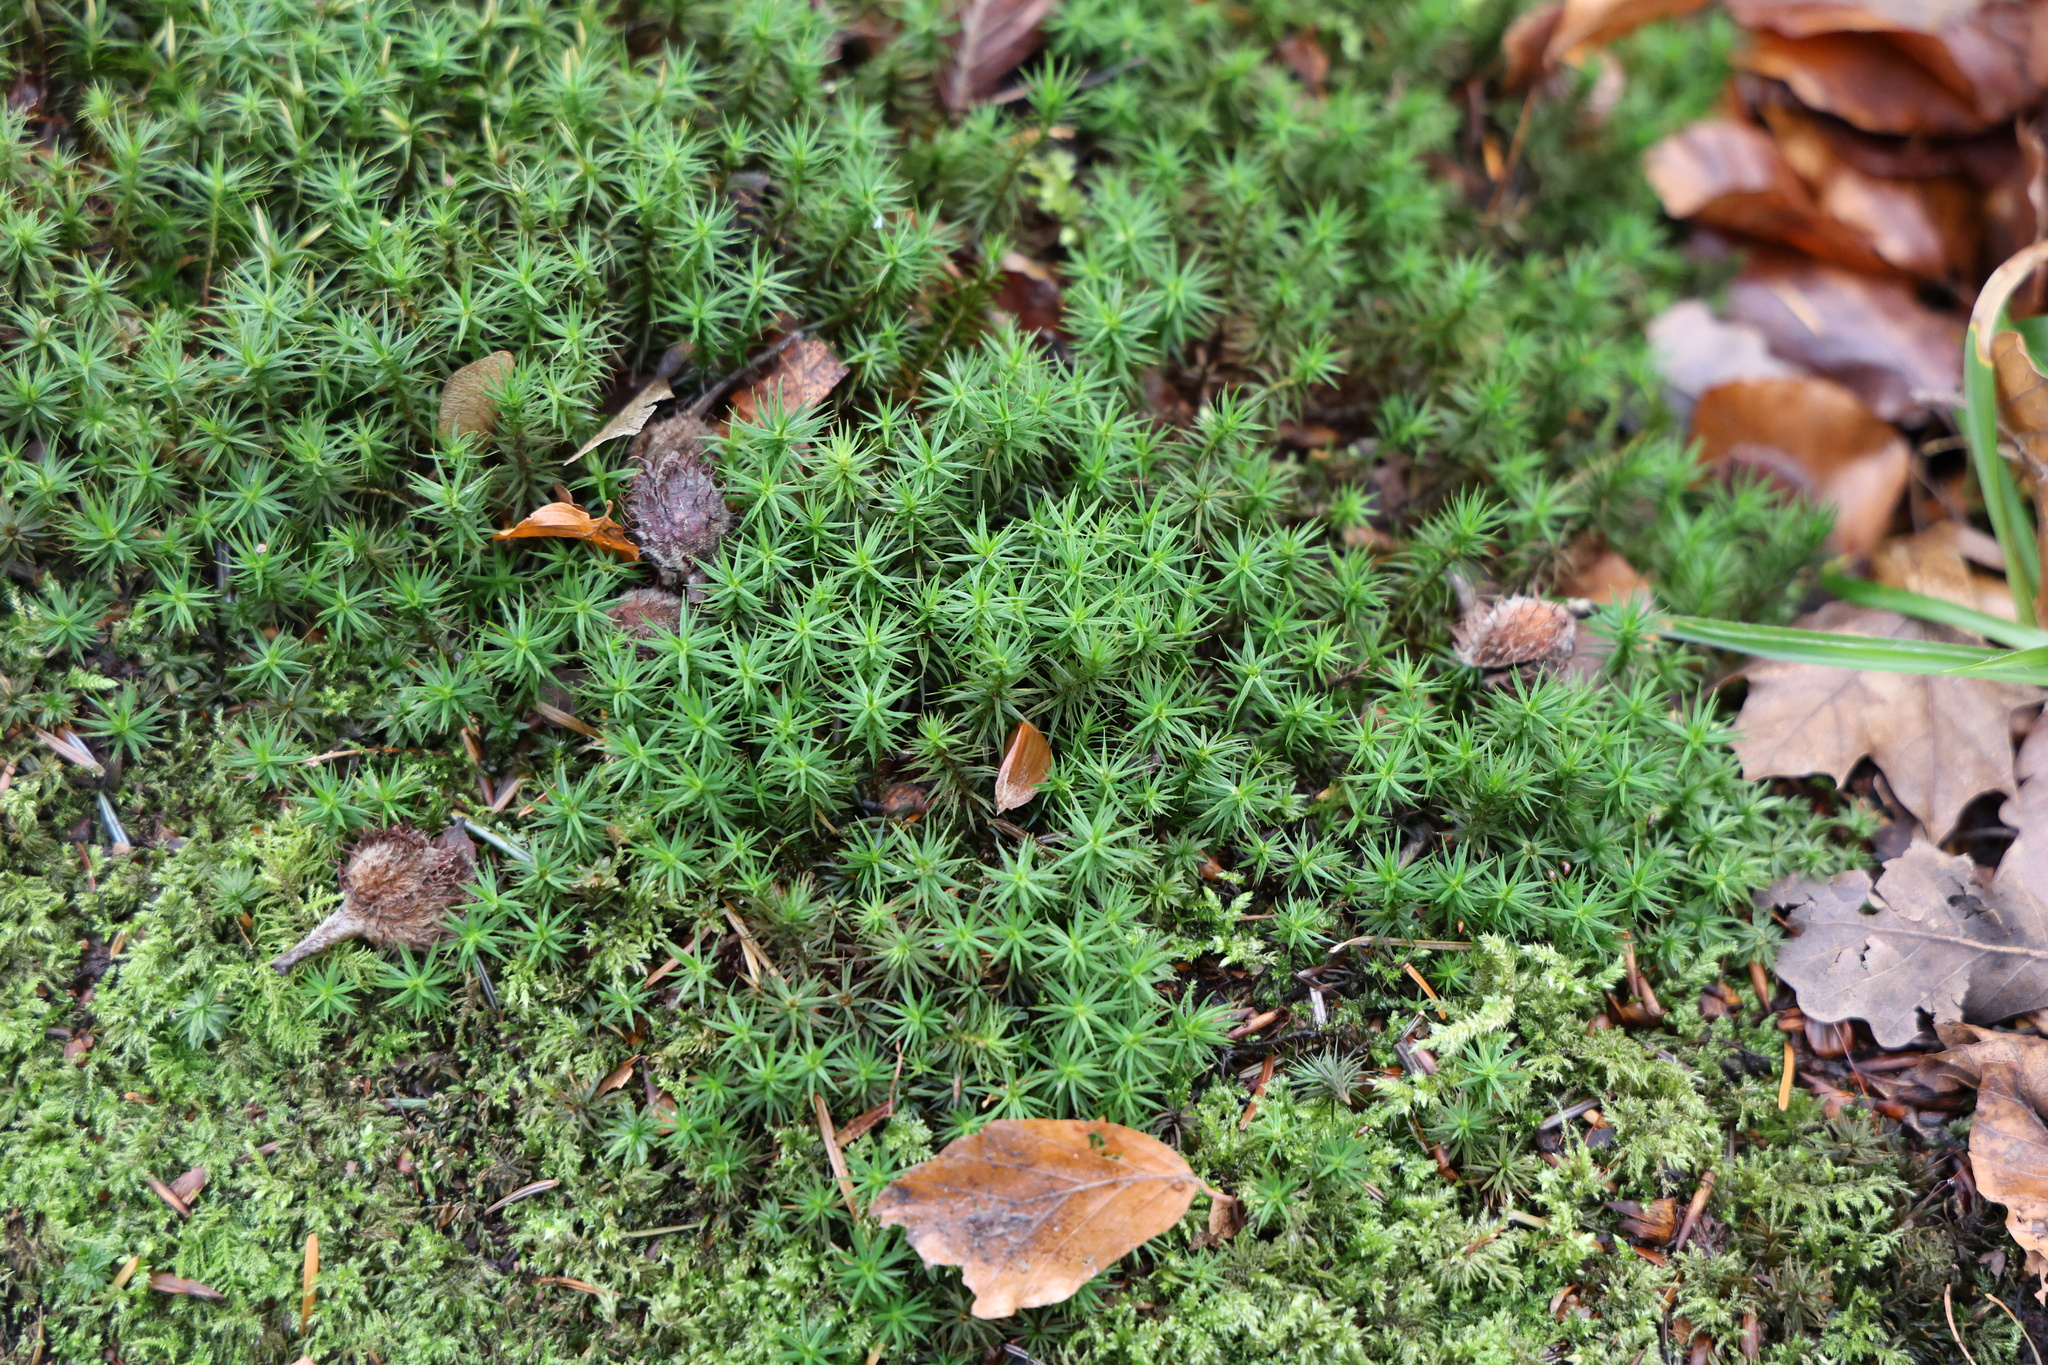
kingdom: Plantae
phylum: Bryophyta
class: Polytrichopsida
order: Polytrichales
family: Polytrichaceae
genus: Polytrichum
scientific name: Polytrichum formosum
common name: Bank haircap moss
